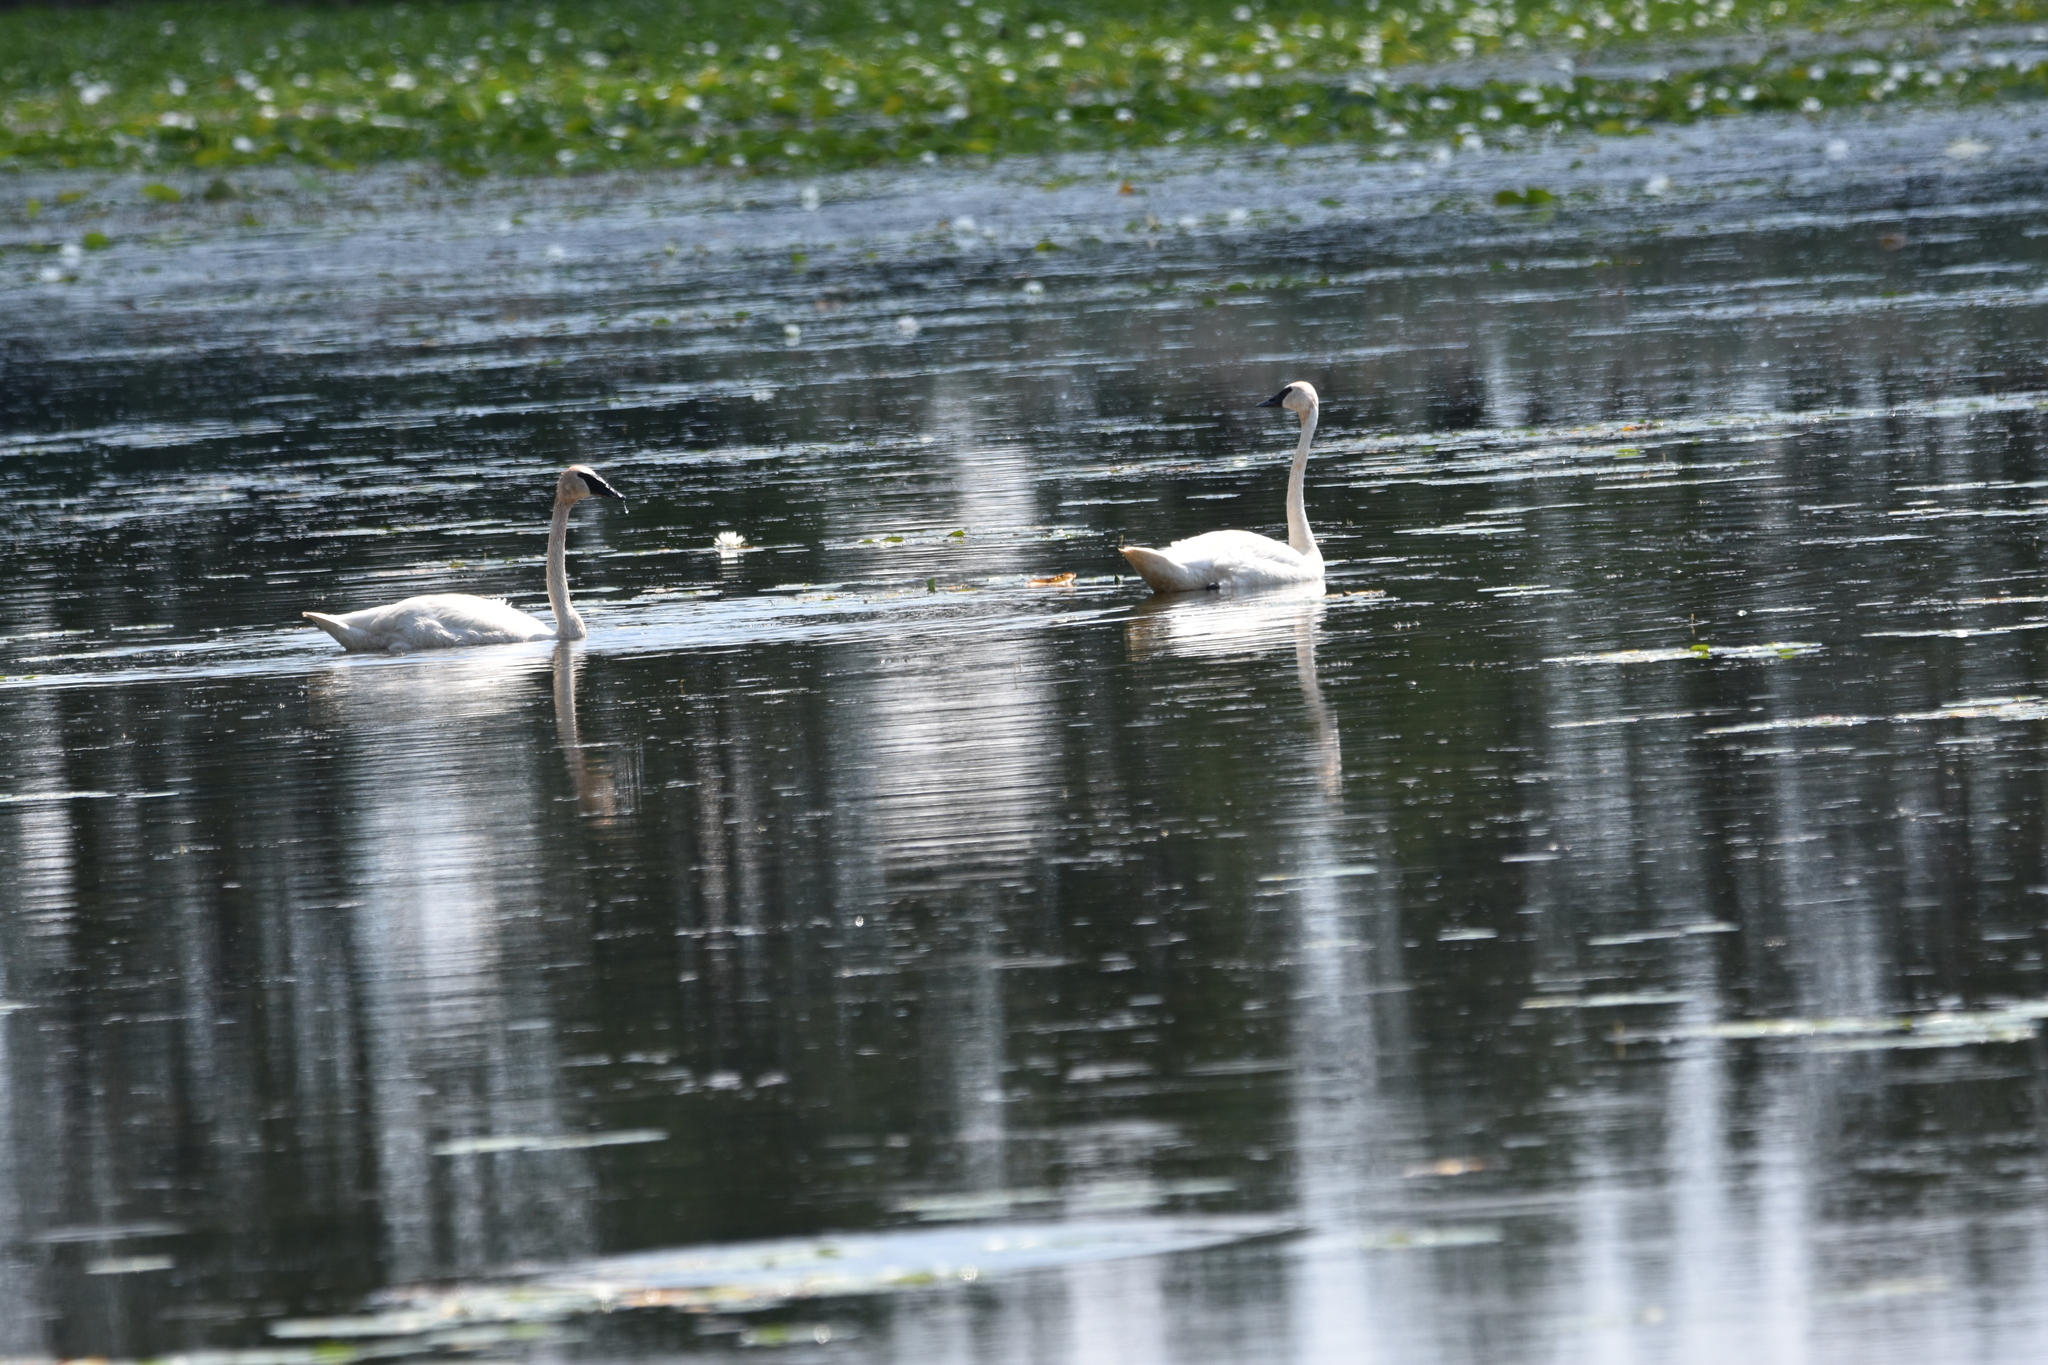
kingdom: Animalia
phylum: Chordata
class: Aves
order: Anseriformes
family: Anatidae
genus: Cygnus
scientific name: Cygnus buccinator
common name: Trumpeter swan
